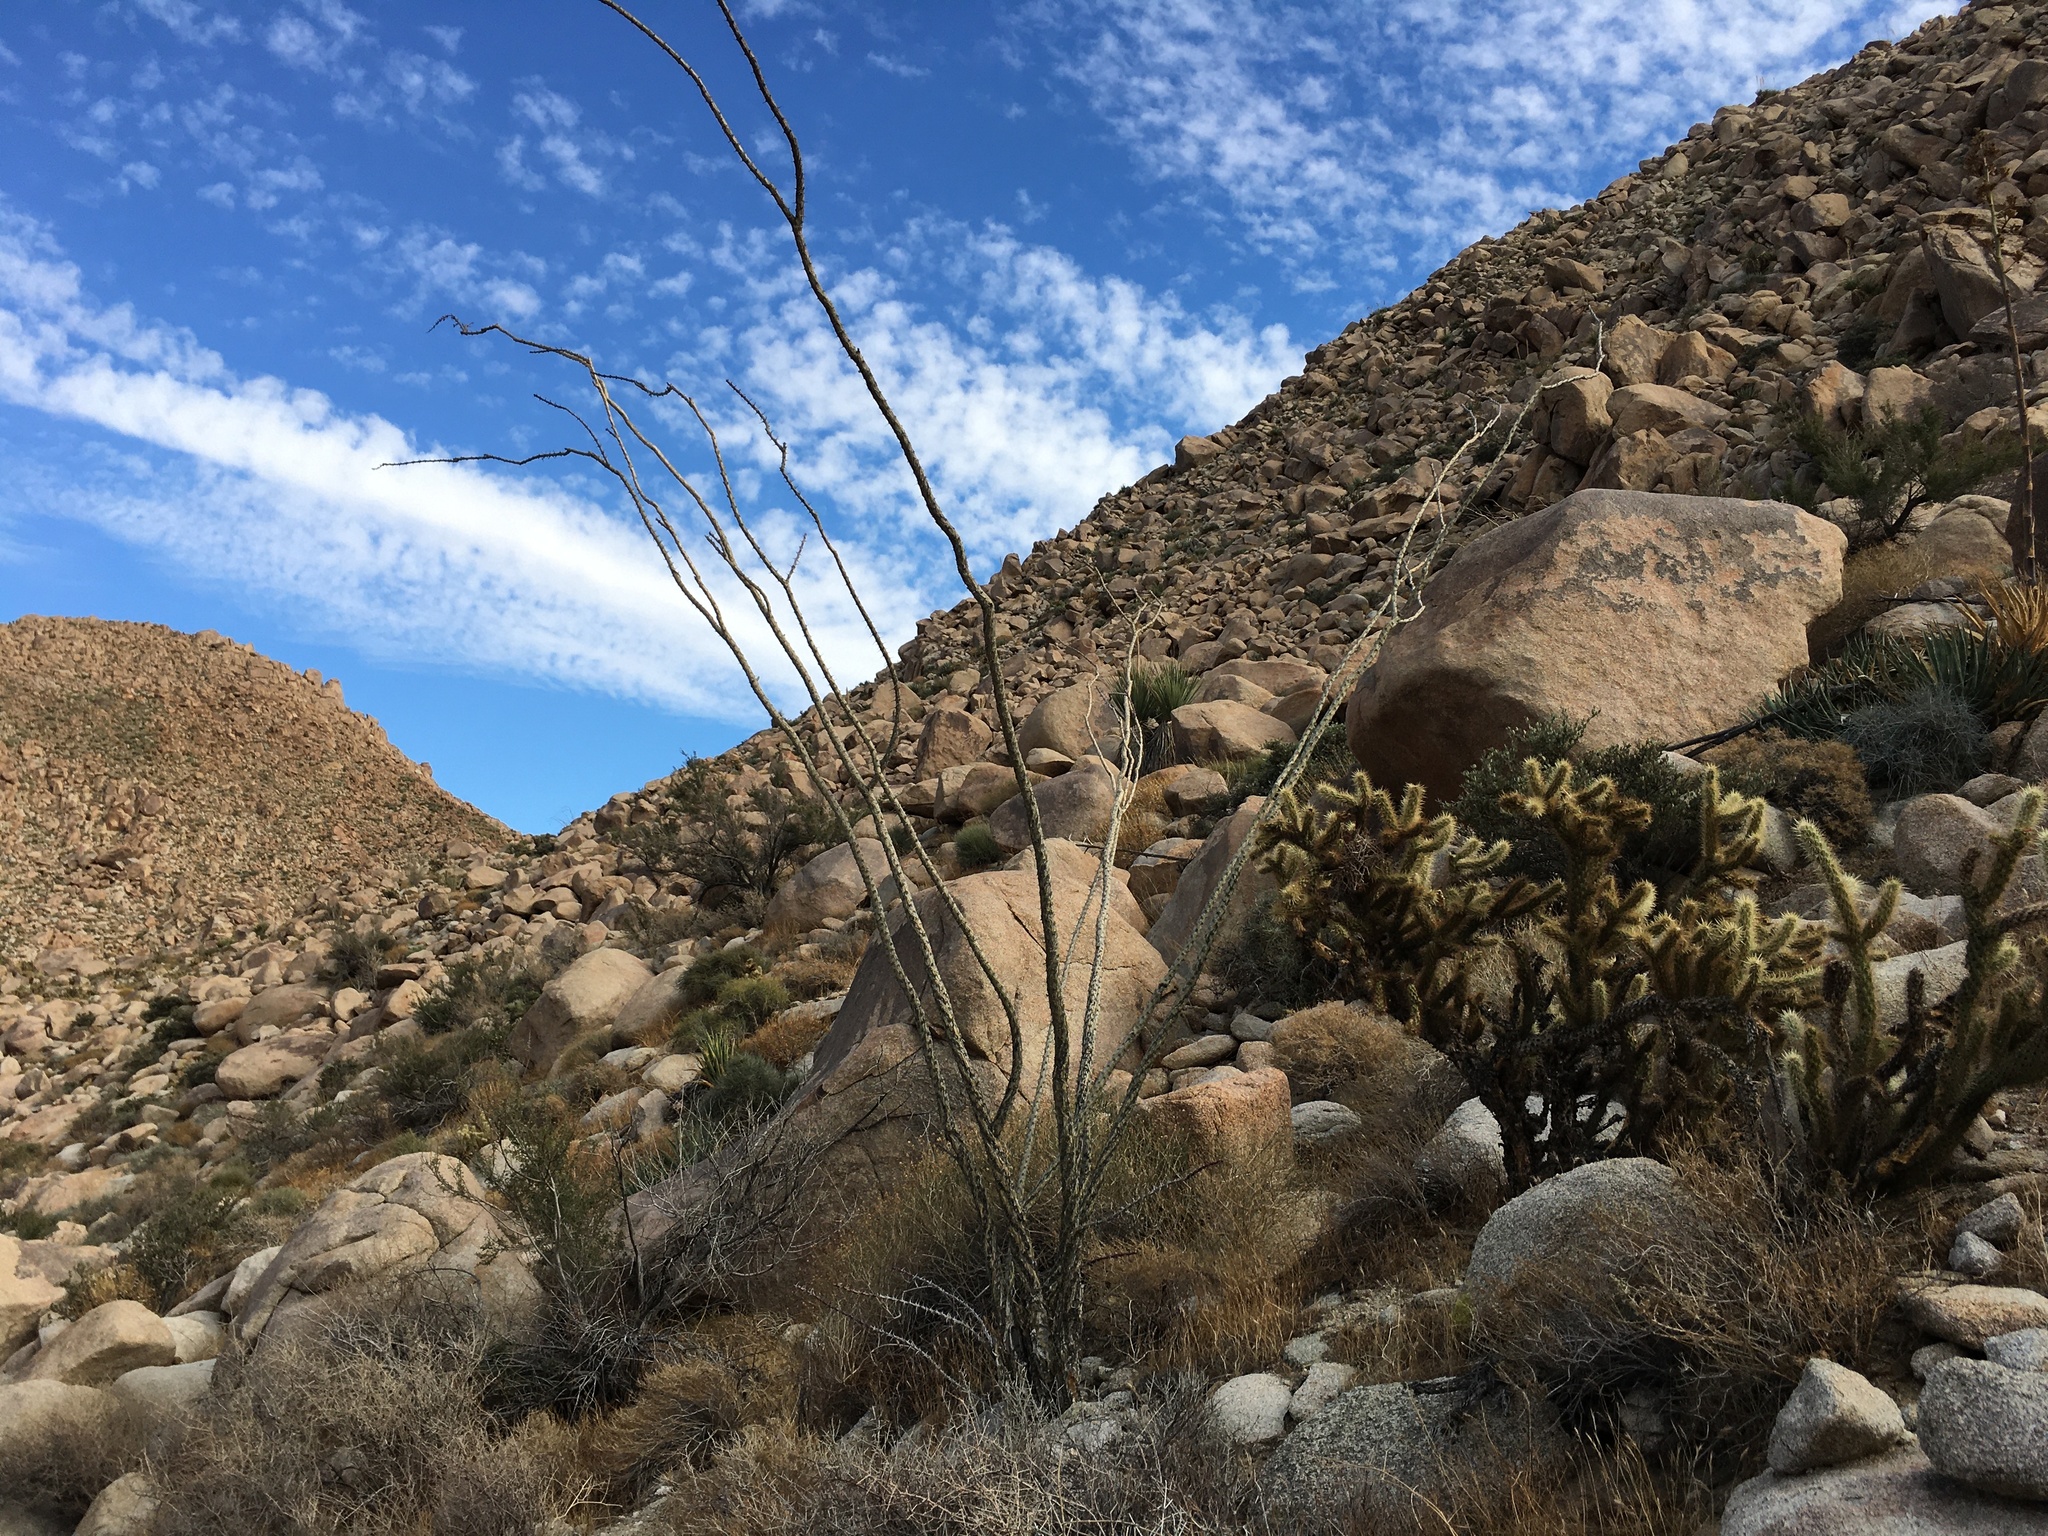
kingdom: Plantae
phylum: Tracheophyta
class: Magnoliopsida
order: Ericales
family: Fouquieriaceae
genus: Fouquieria
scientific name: Fouquieria splendens
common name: Vine-cactus
